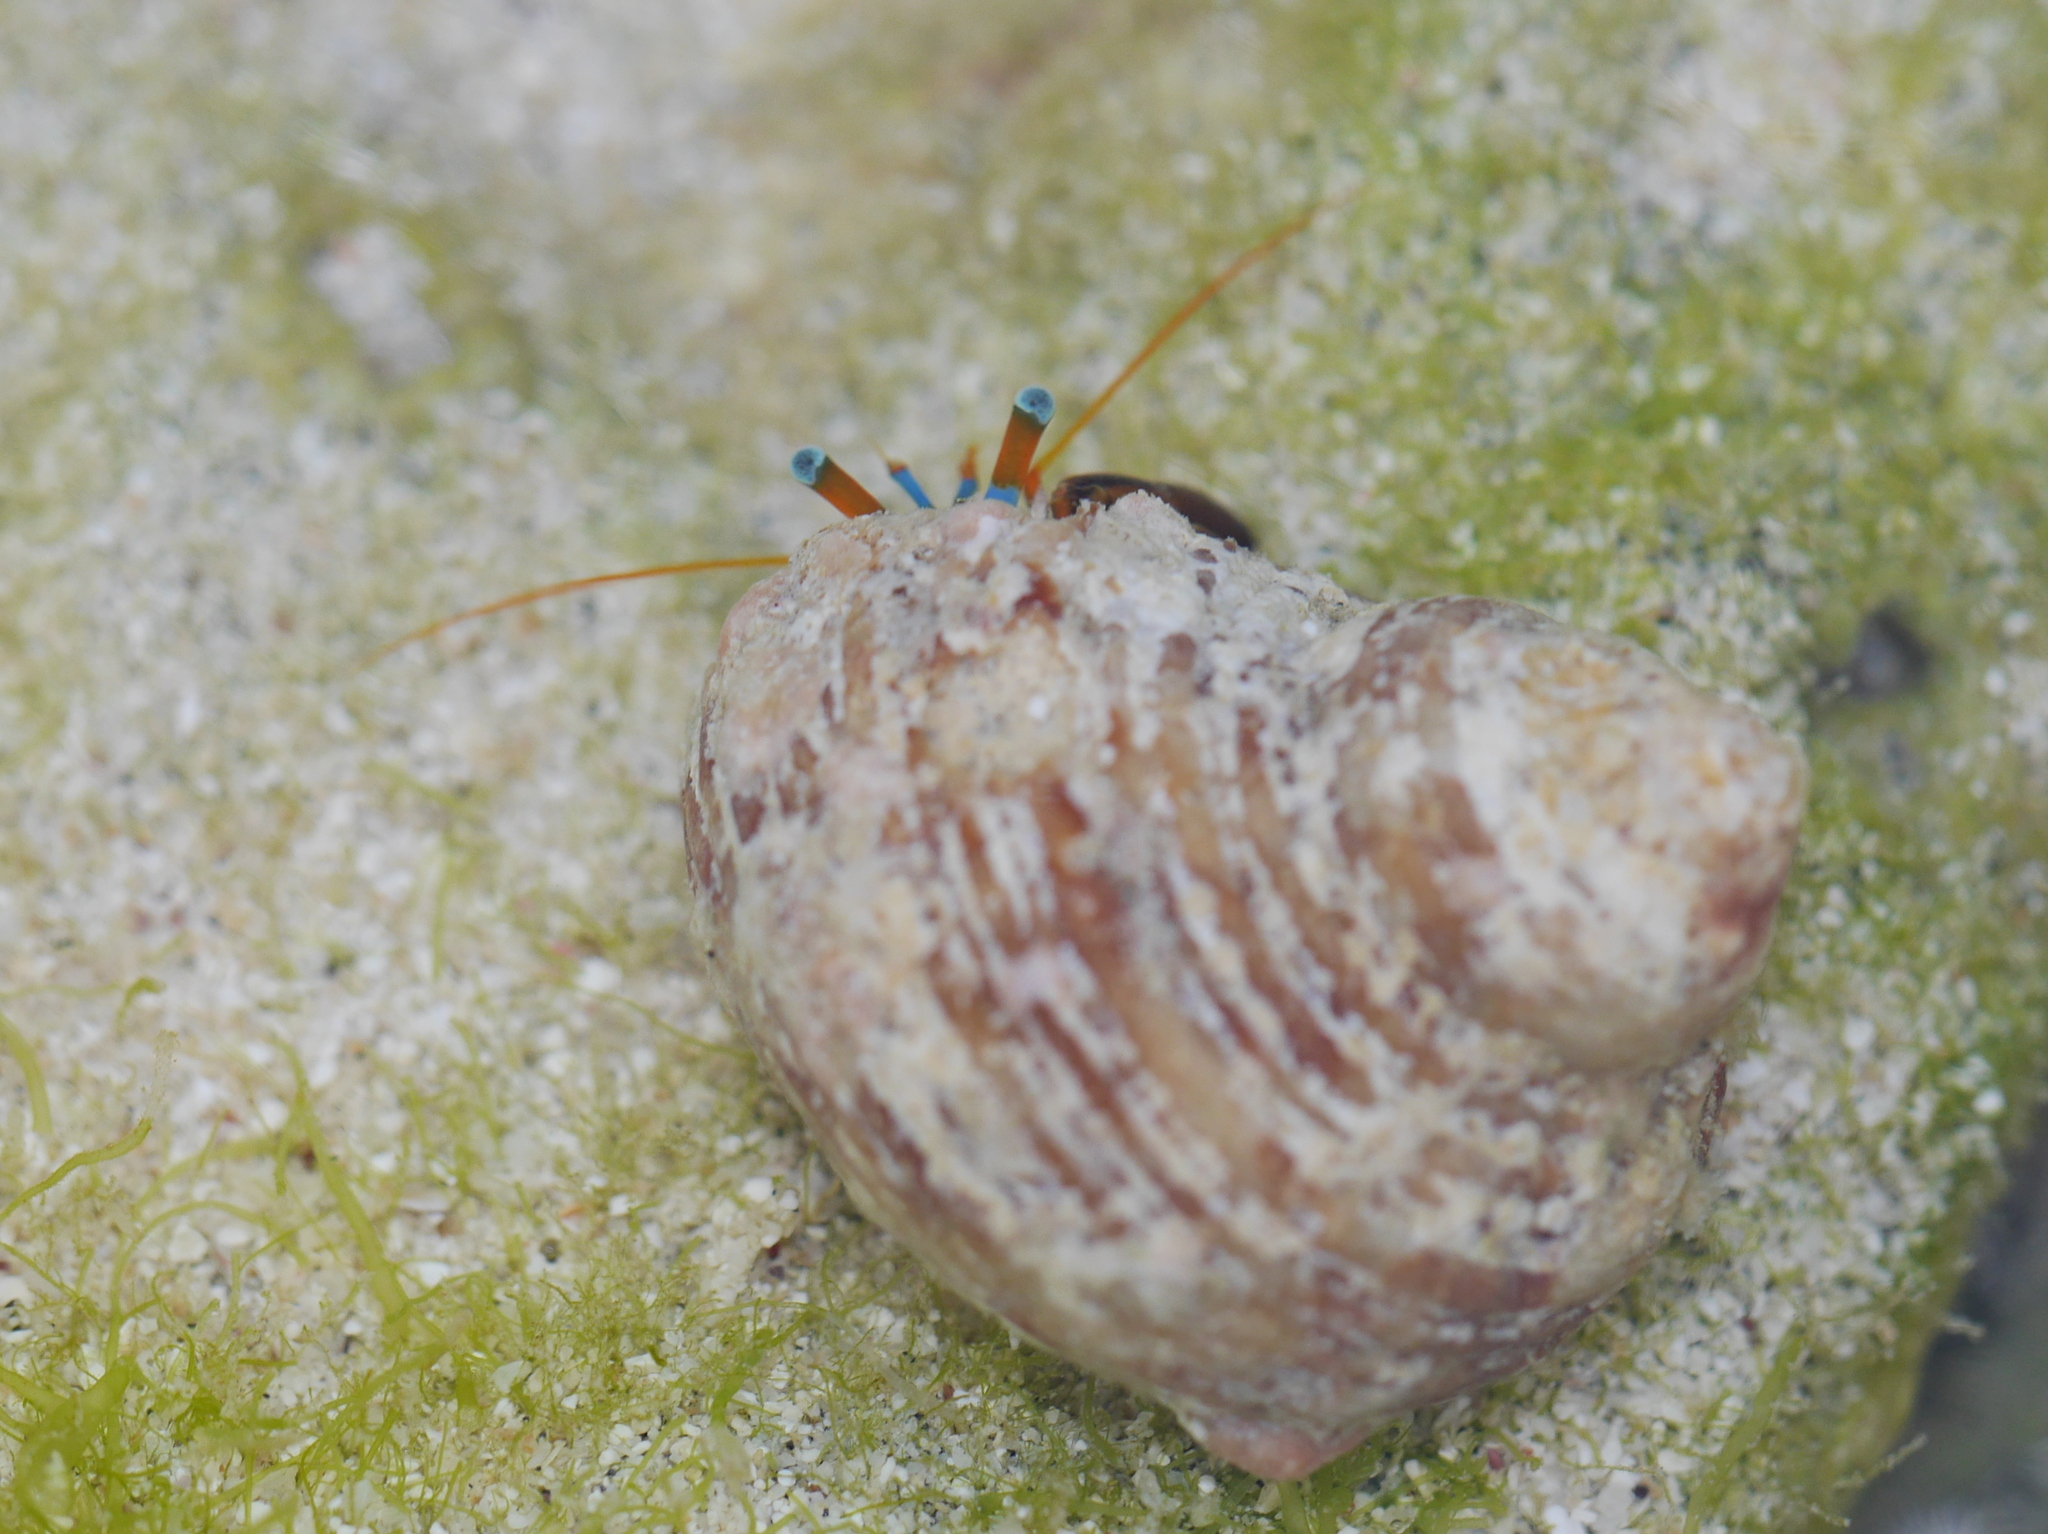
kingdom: Animalia
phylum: Arthropoda
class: Malacostraca
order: Decapoda
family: Diogenidae
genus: Calcinus
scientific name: Calcinus laevimanus
